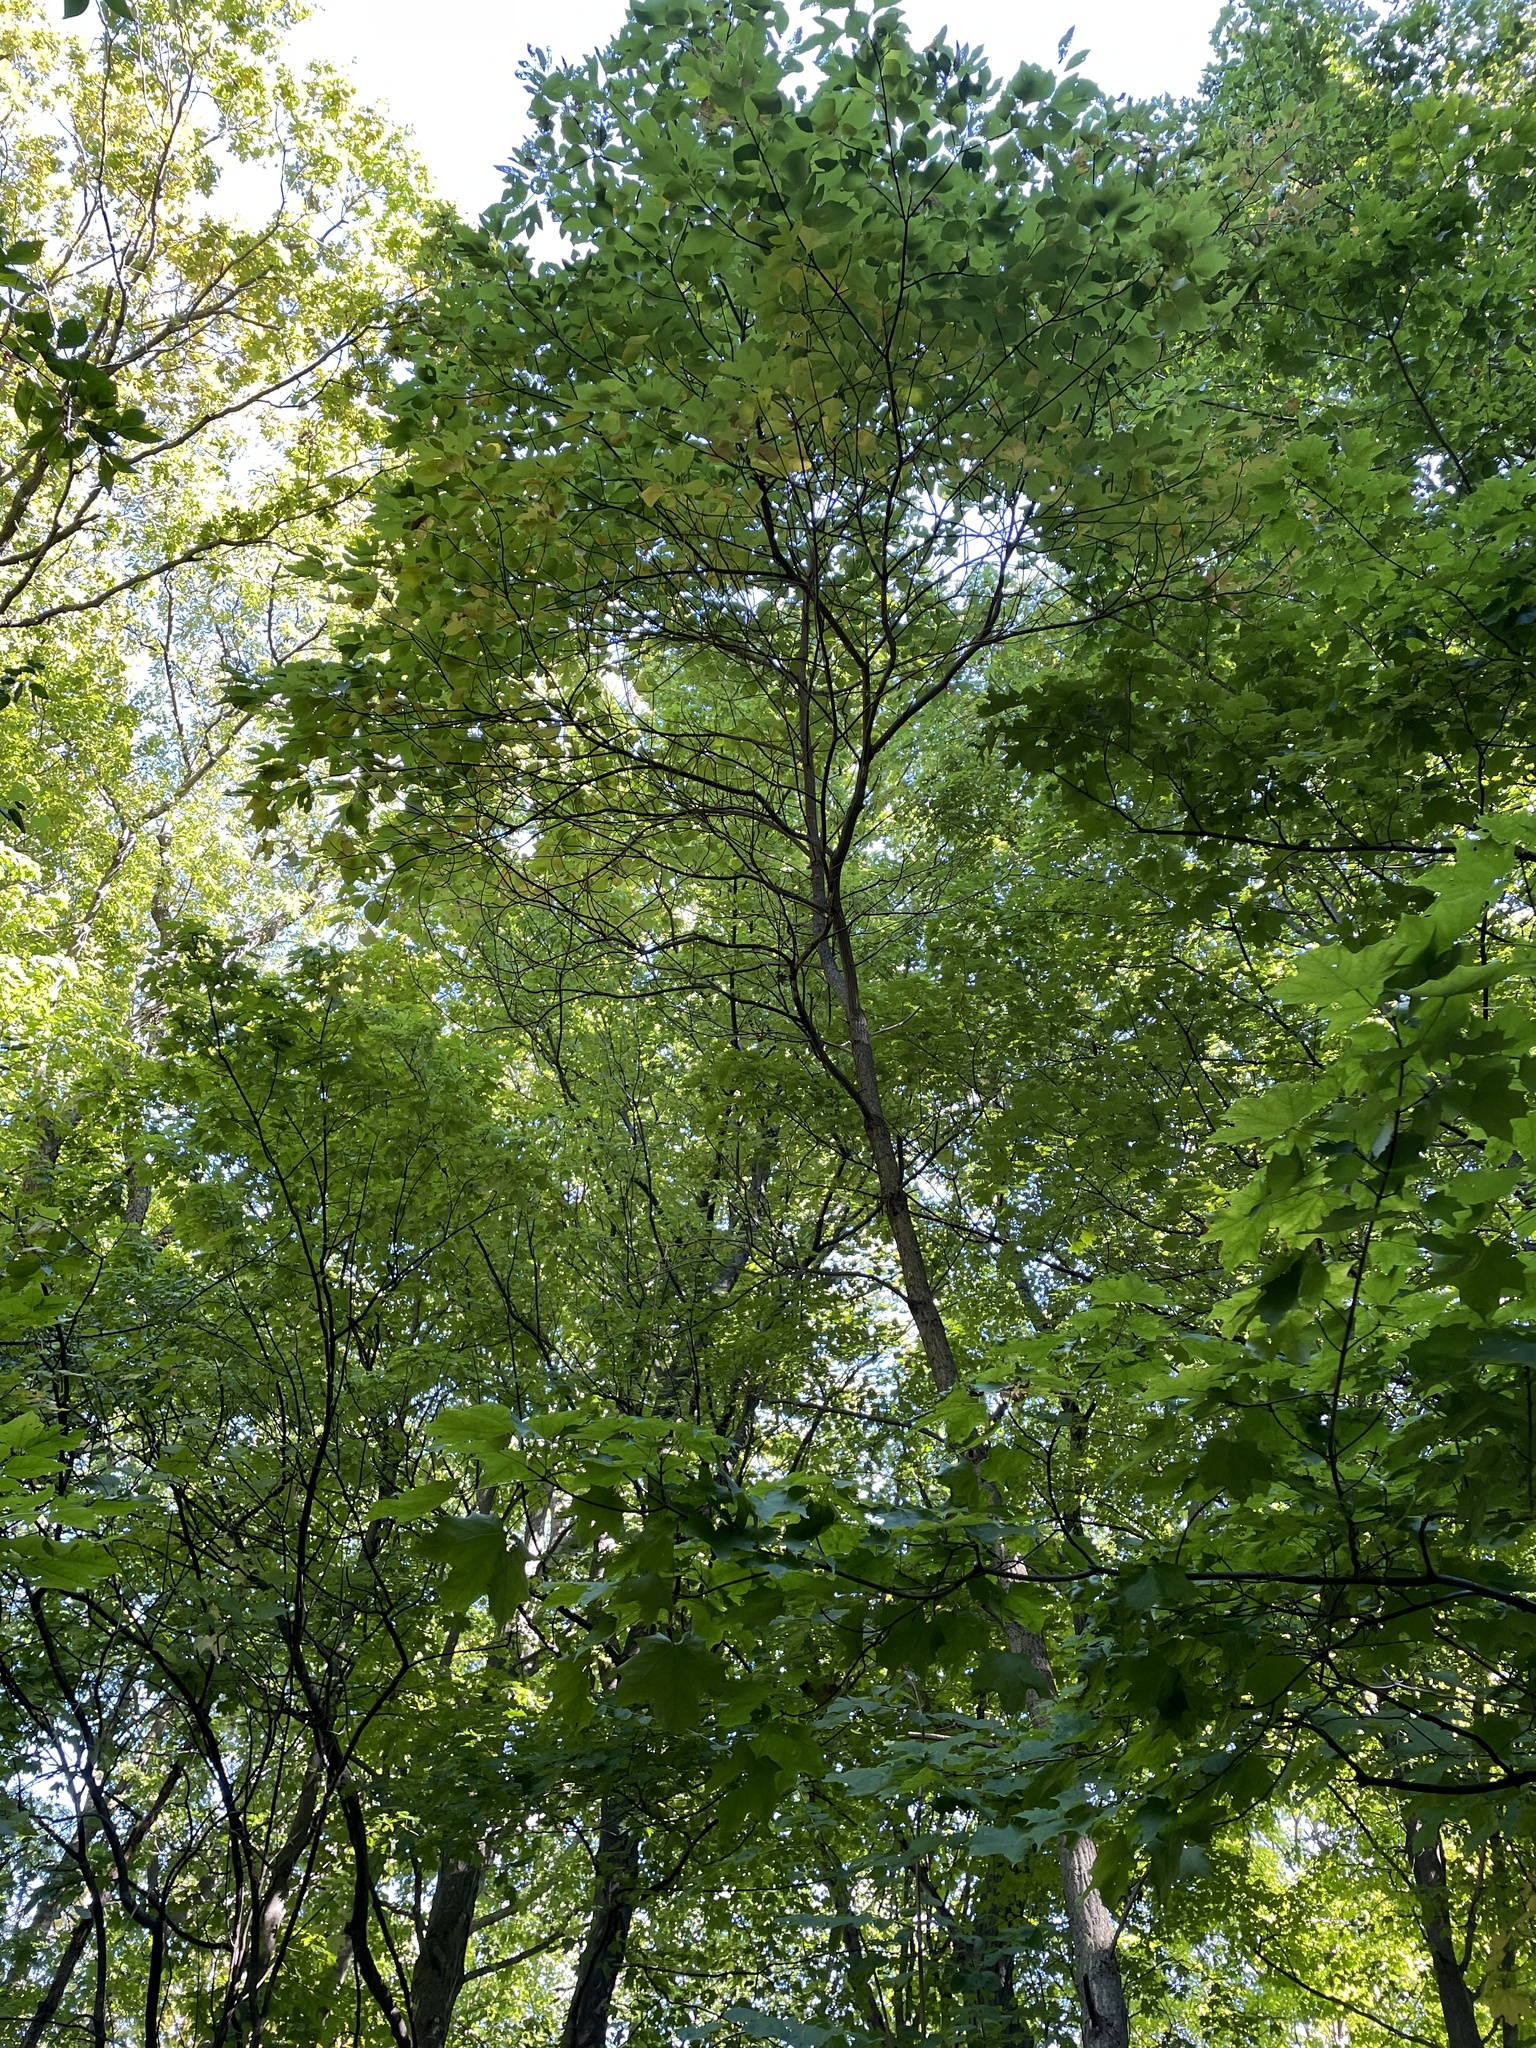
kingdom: Plantae
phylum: Tracheophyta
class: Magnoliopsida
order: Laurales
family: Lauraceae
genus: Sassafras
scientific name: Sassafras albidum
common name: Sassafras
